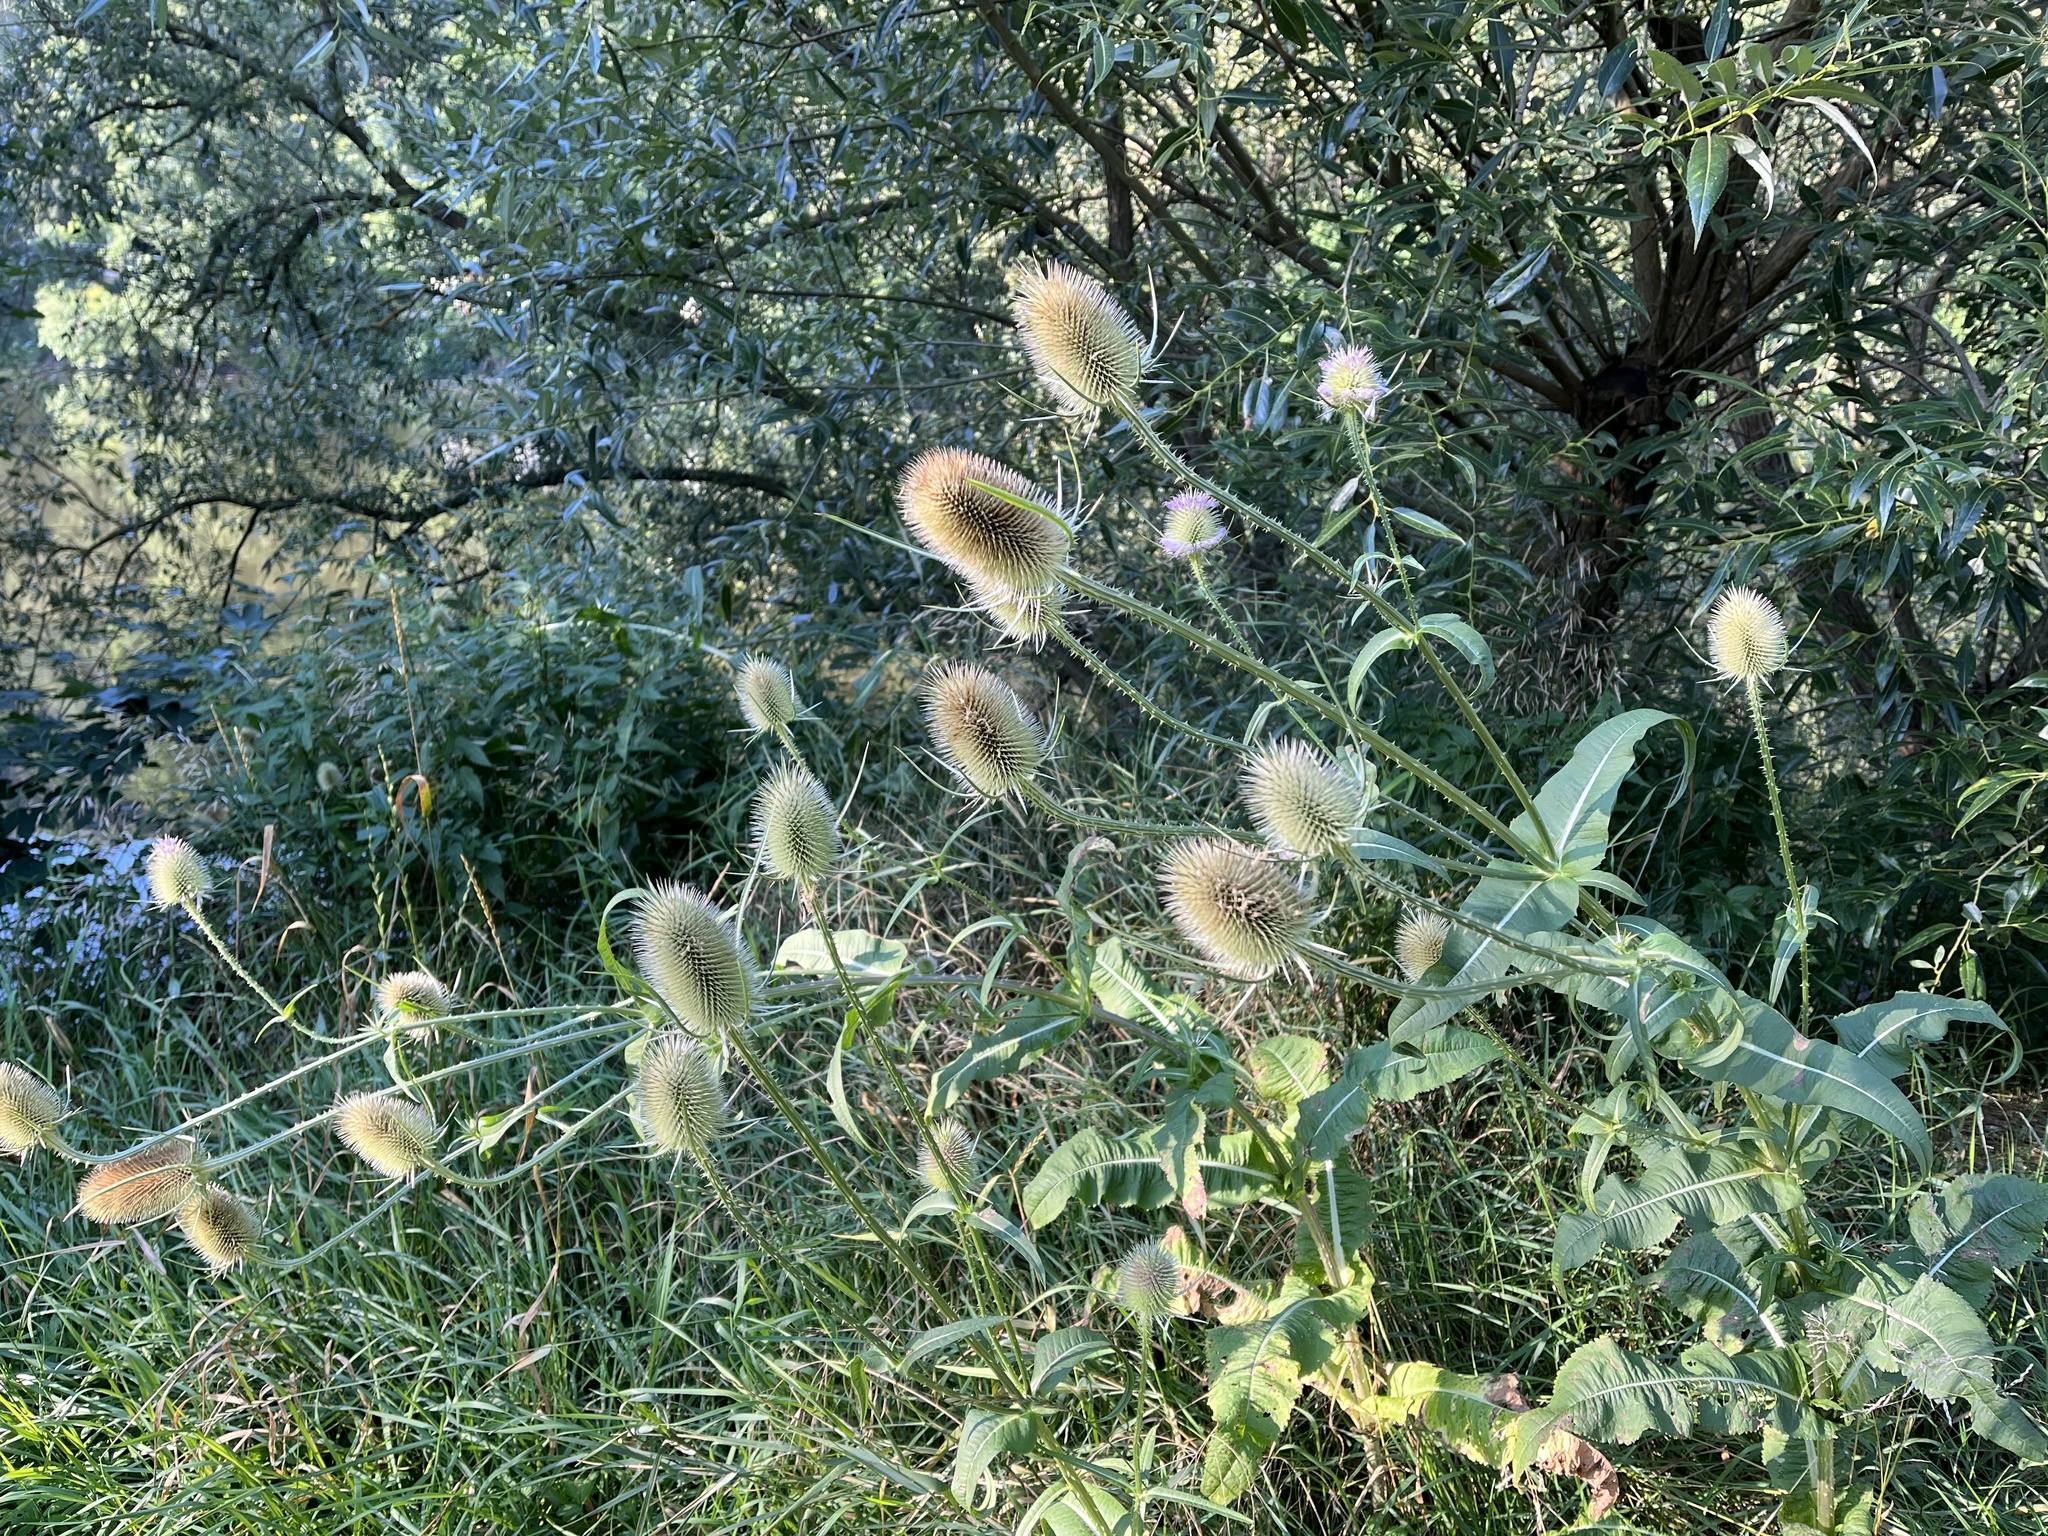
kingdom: Plantae
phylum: Tracheophyta
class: Magnoliopsida
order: Dipsacales
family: Caprifoliaceae
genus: Dipsacus
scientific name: Dipsacus fullonum
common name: Teasel
